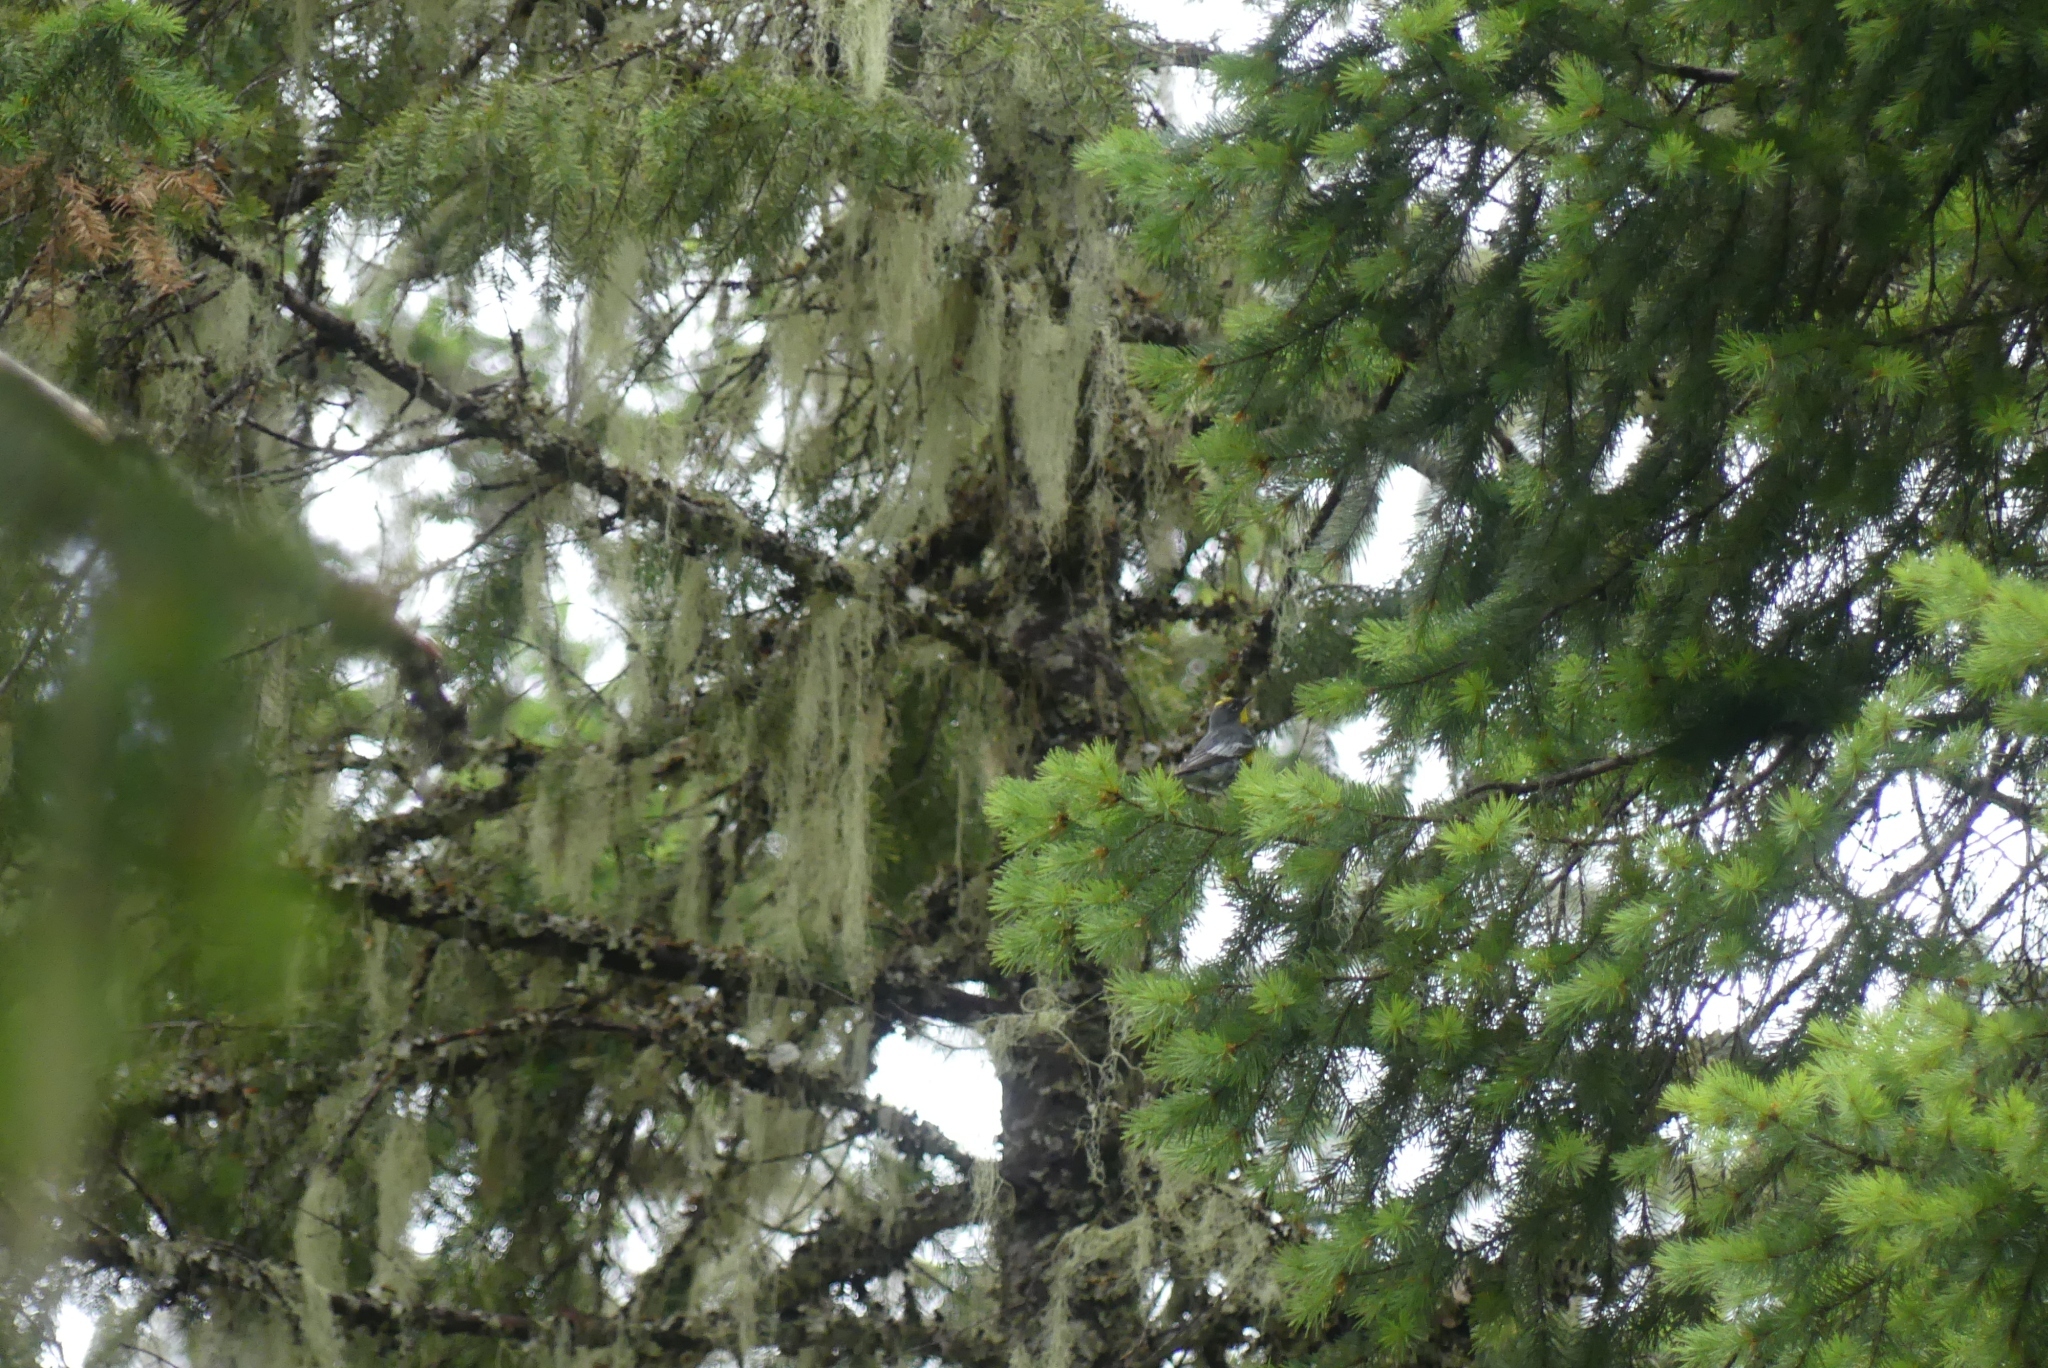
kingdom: Animalia
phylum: Chordata
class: Aves
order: Passeriformes
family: Parulidae
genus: Setophaga
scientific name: Setophaga coronata
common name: Myrtle warbler
